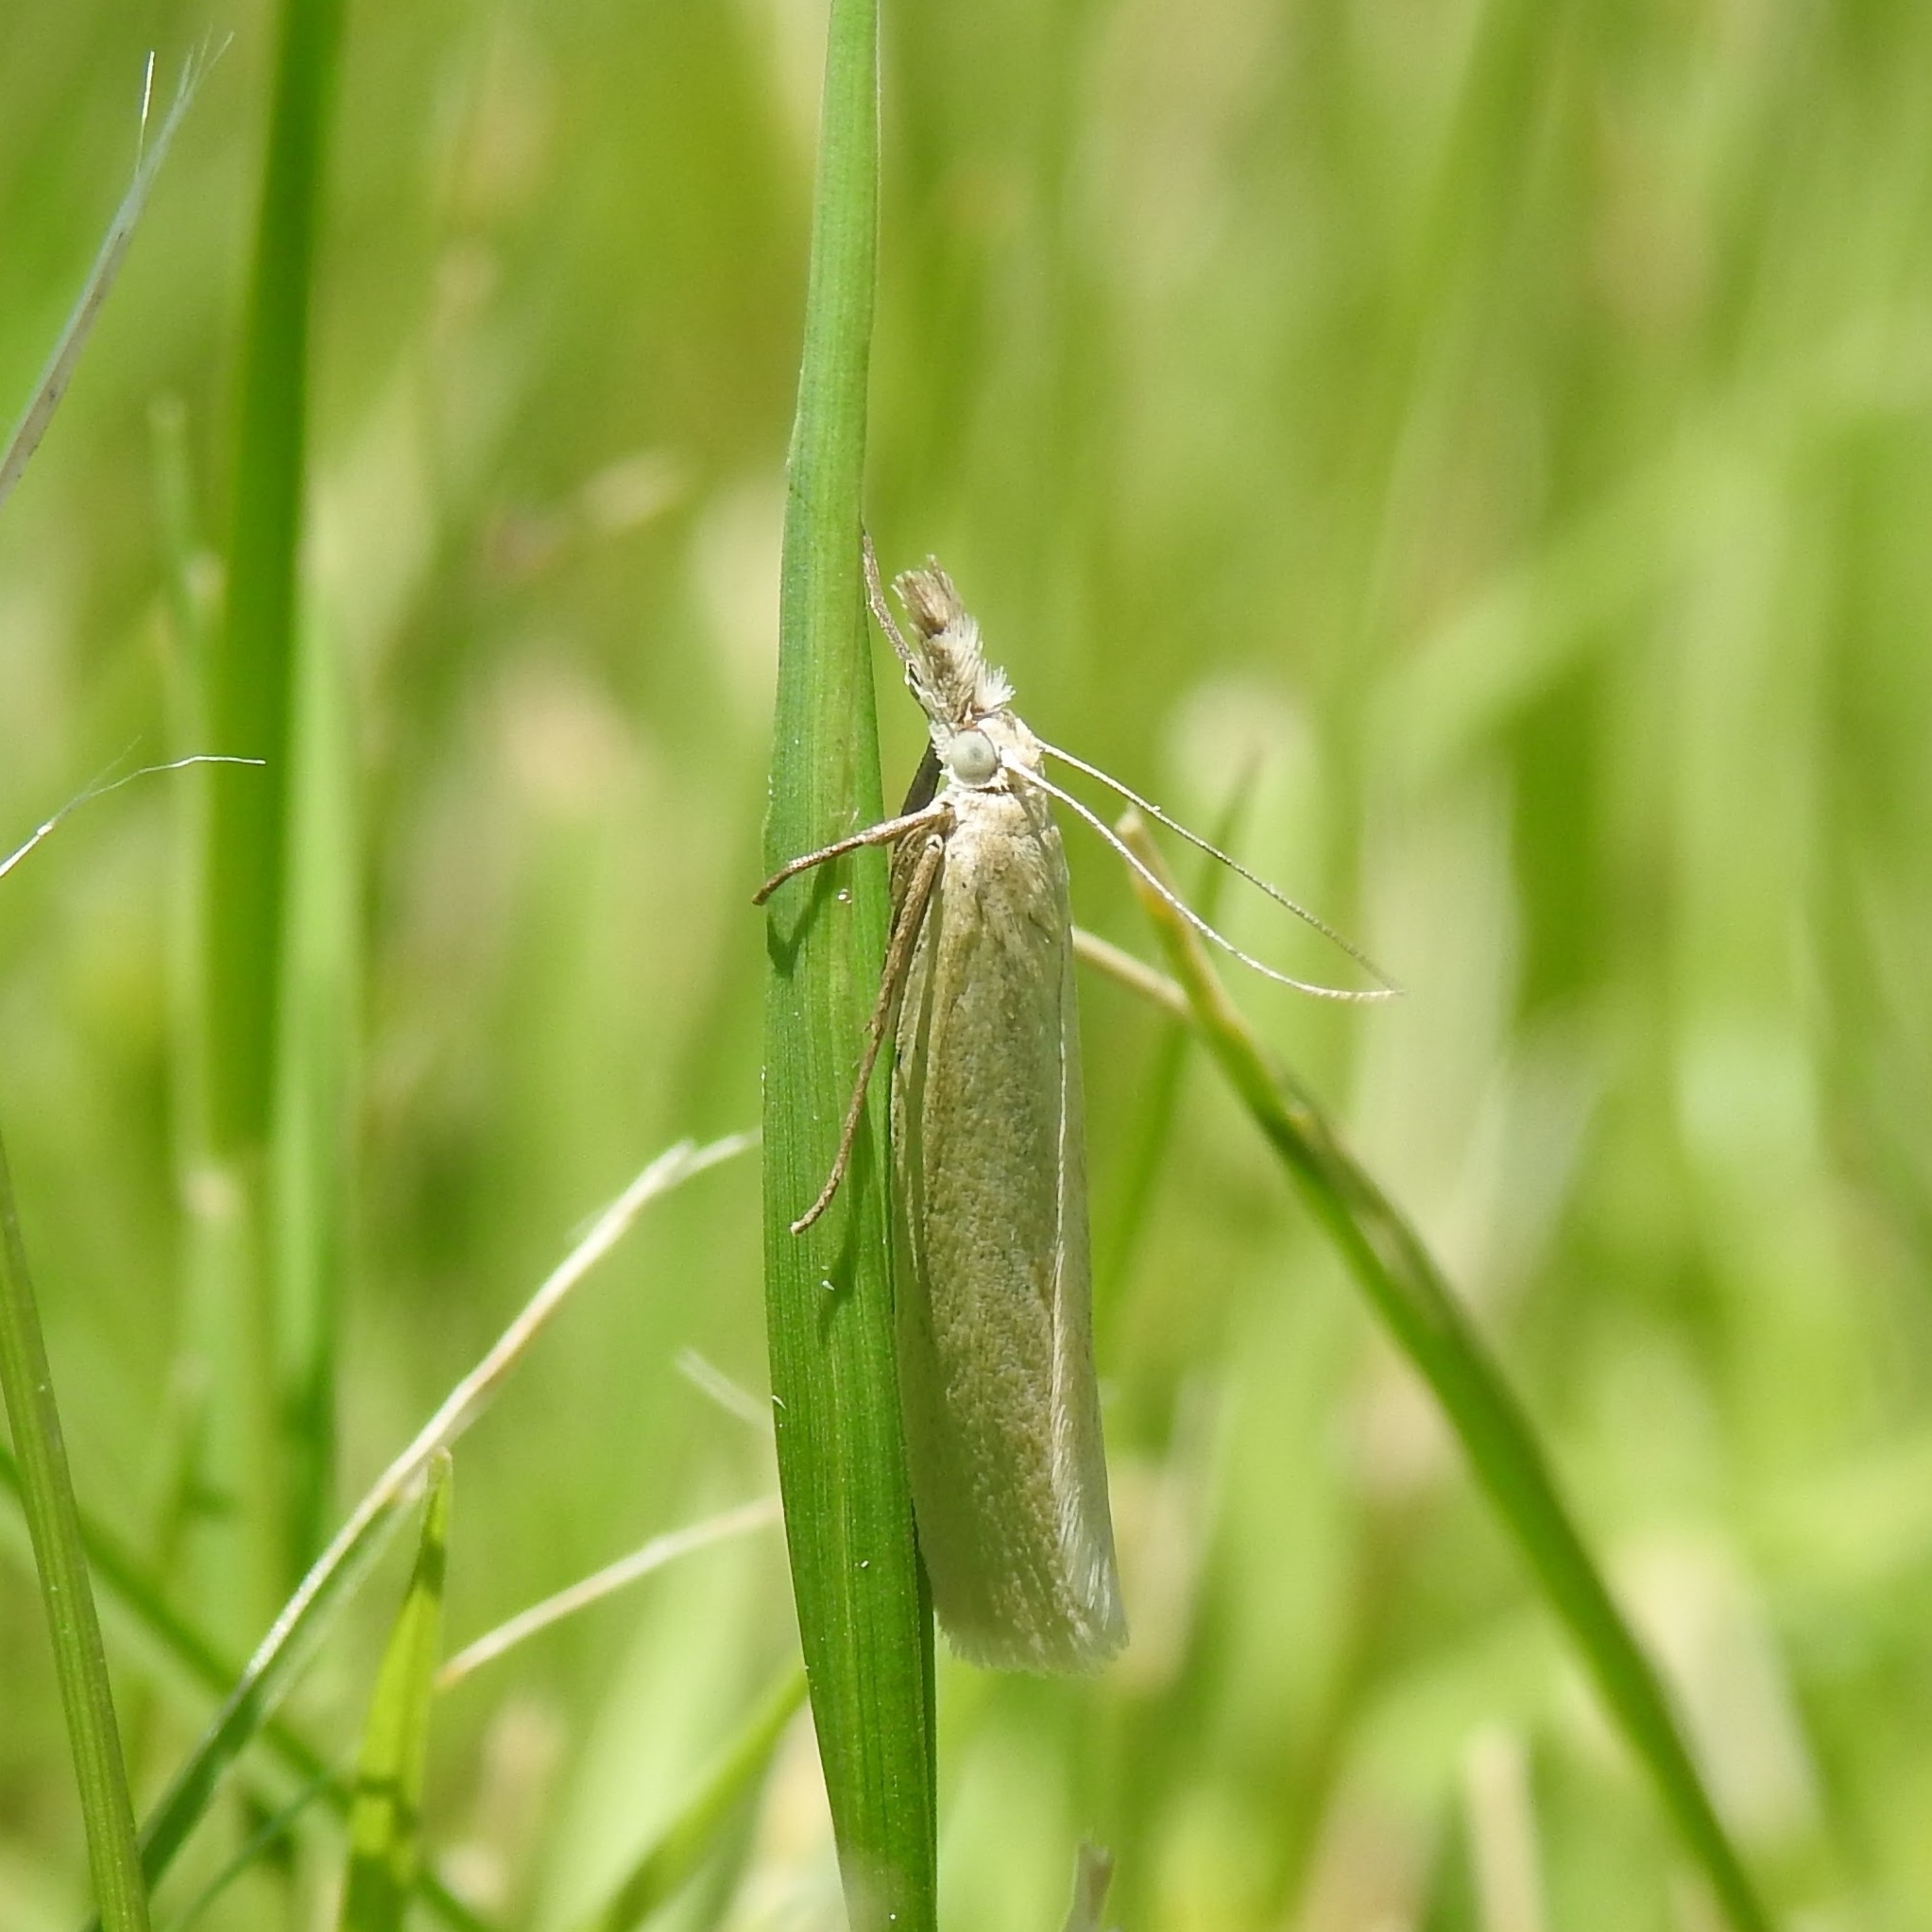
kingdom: Animalia
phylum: Arthropoda
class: Insecta
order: Lepidoptera
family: Crambidae
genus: Crambus
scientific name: Crambus perlellus
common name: Yellow satin veneer
